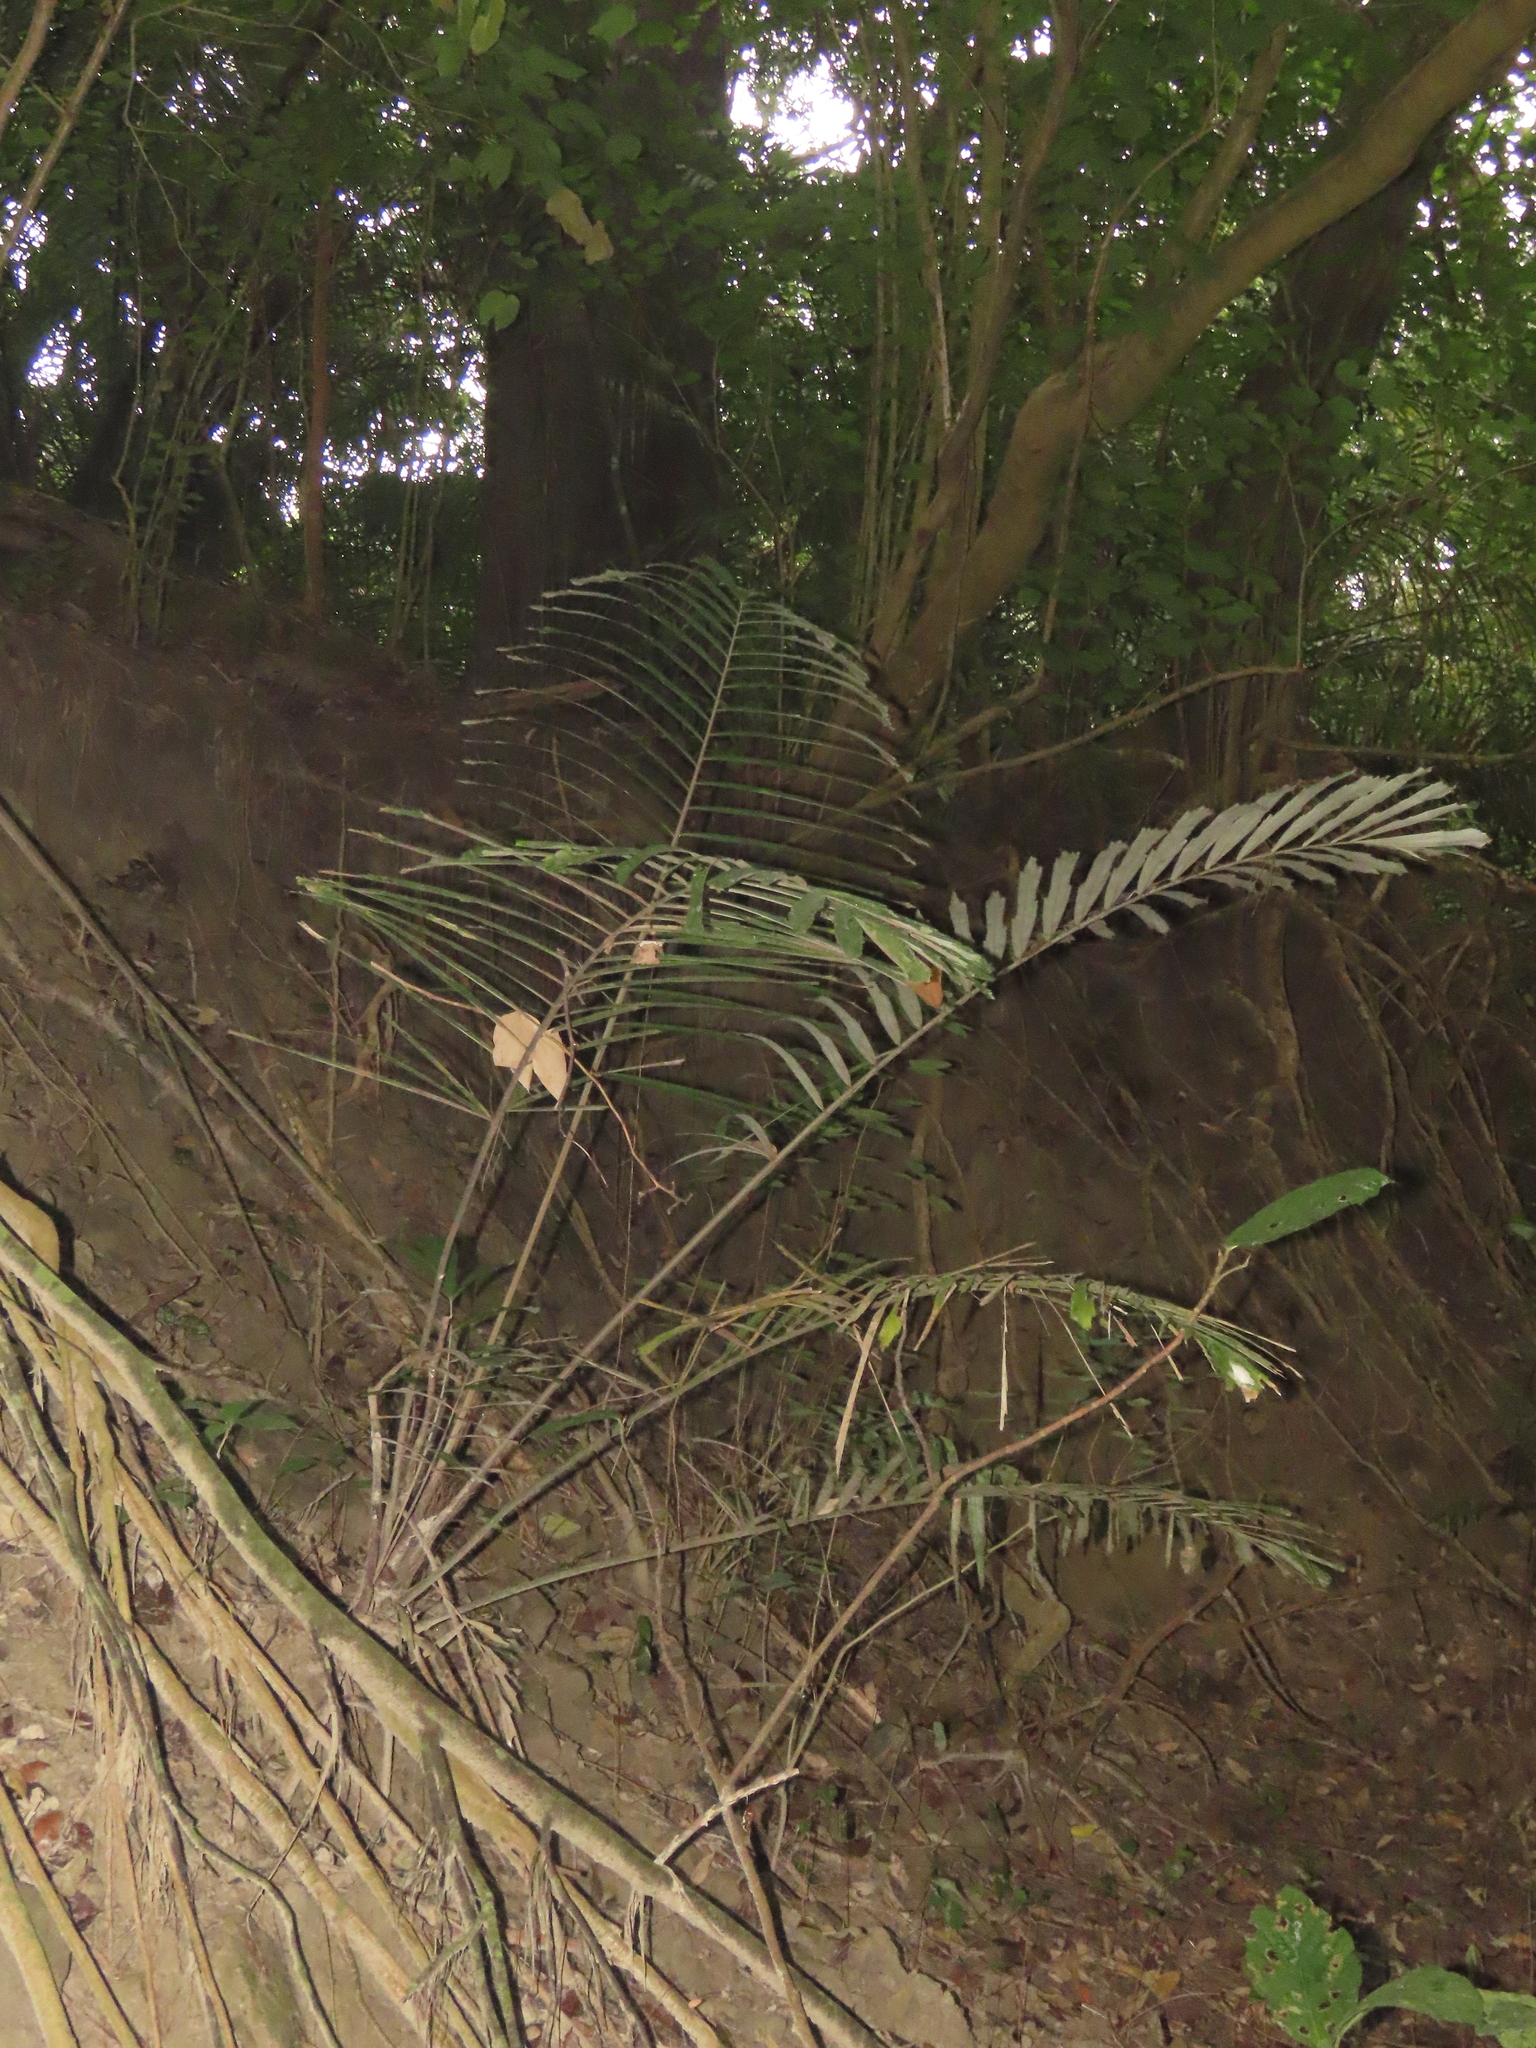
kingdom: Plantae
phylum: Tracheophyta
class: Liliopsida
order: Arecales
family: Arecaceae
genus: Arenga
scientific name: Arenga engleri
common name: Formosan sugar palm
